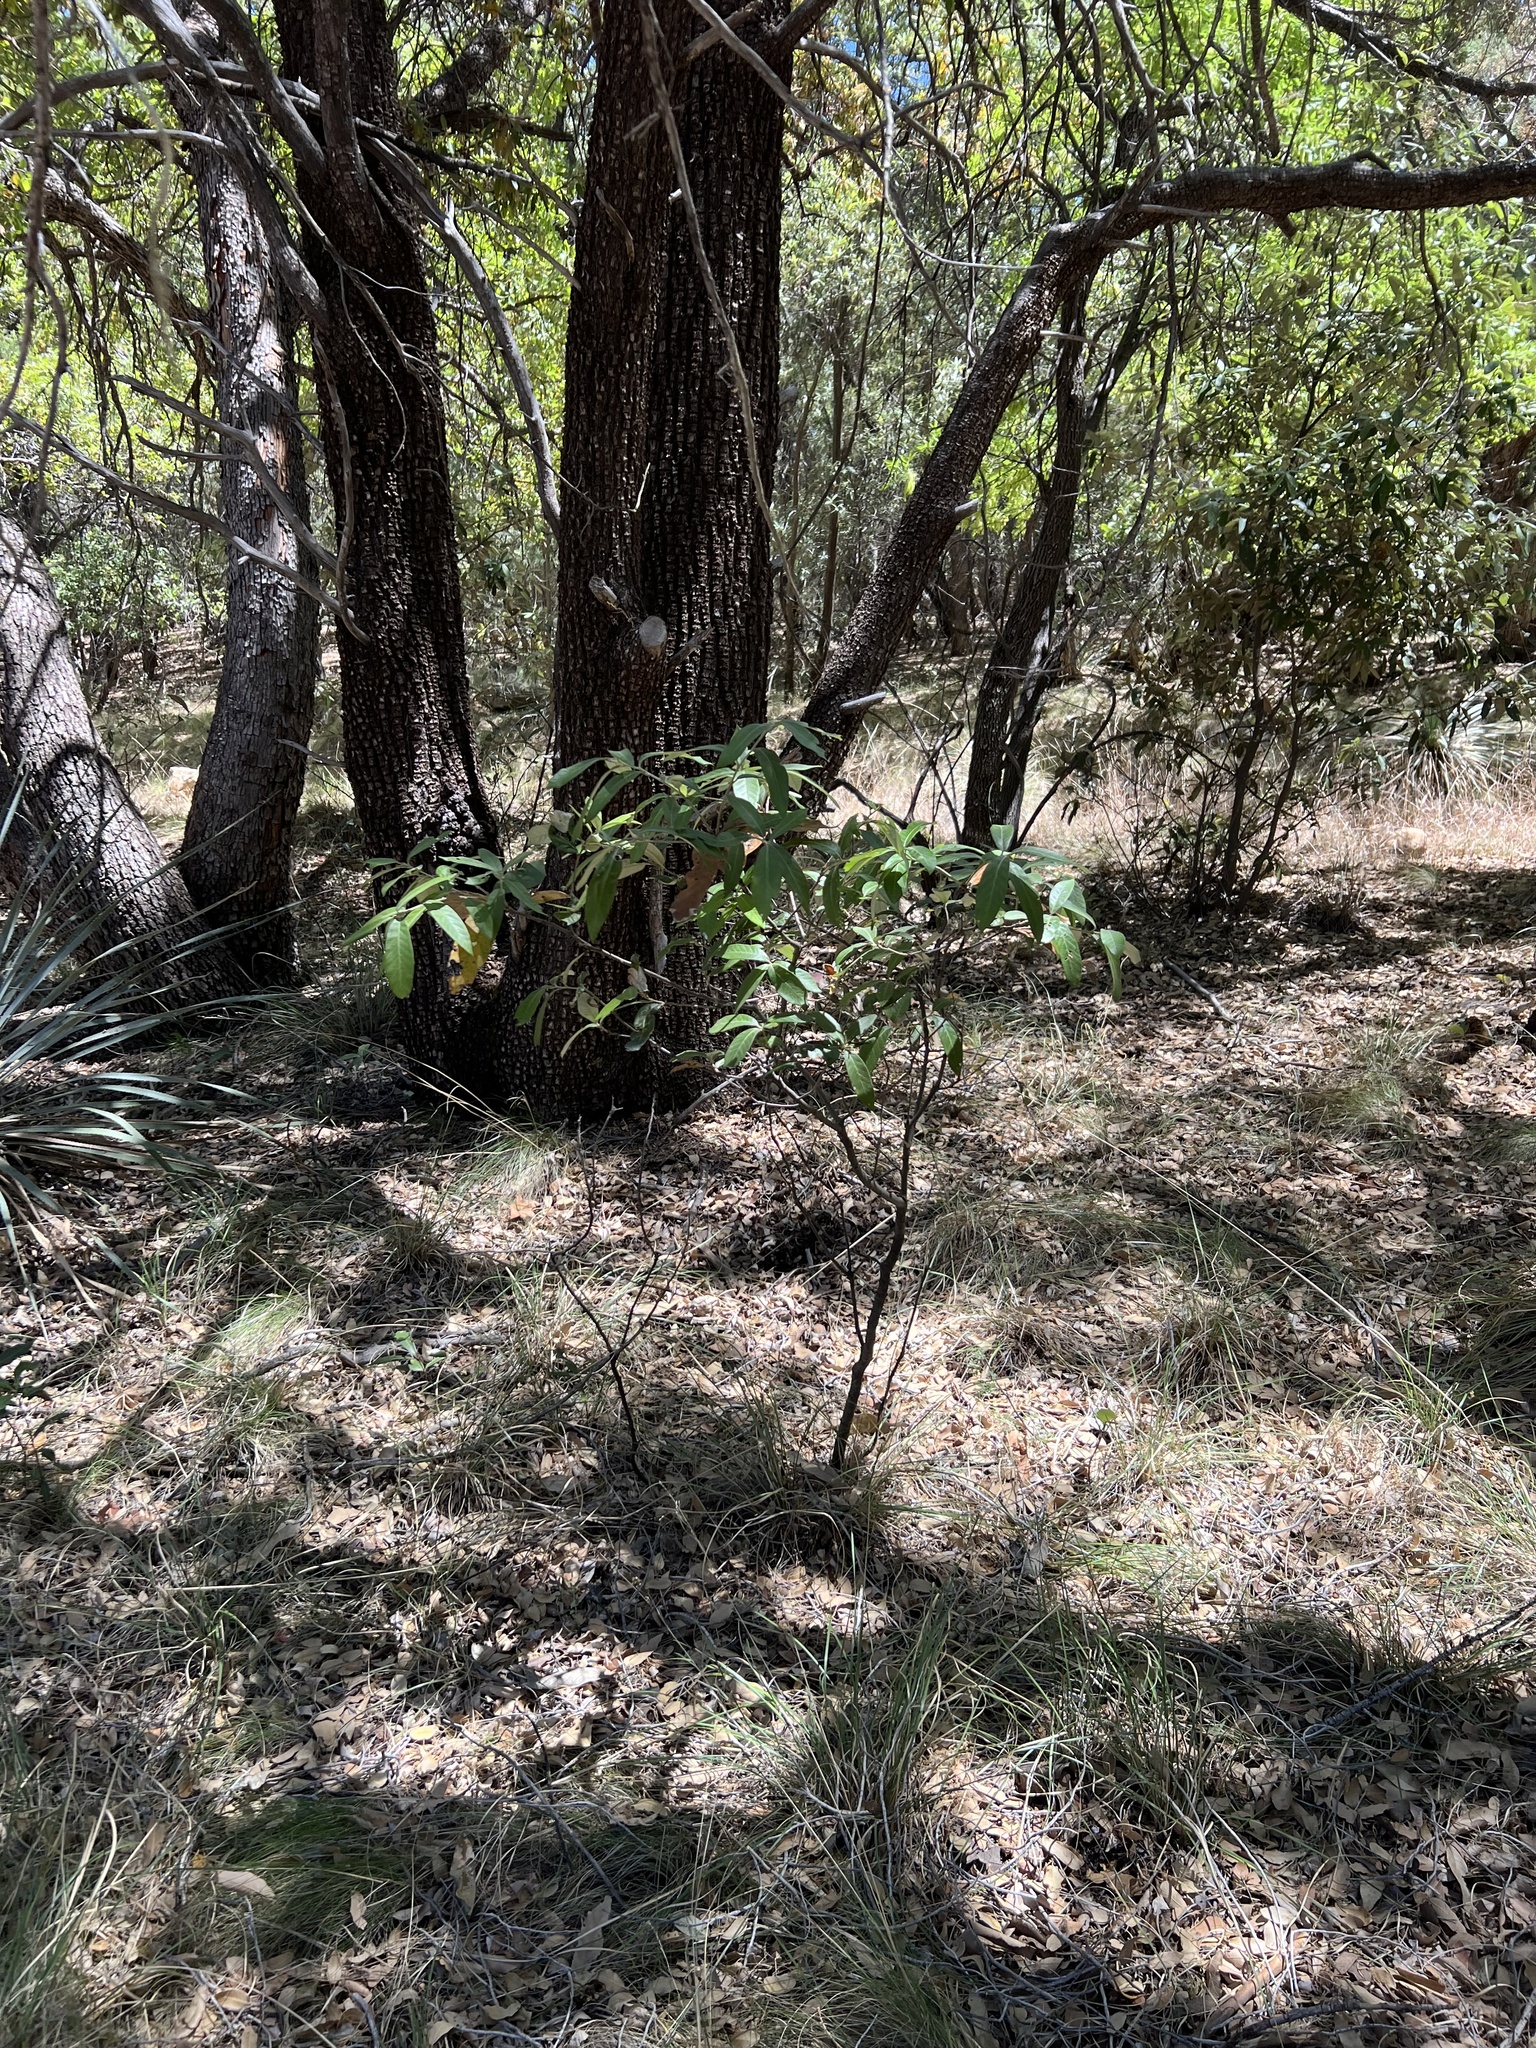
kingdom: Plantae
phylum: Tracheophyta
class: Magnoliopsida
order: Fagales
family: Fagaceae
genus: Quercus
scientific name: Quercus hypoleucoides
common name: Silverleaf oak
